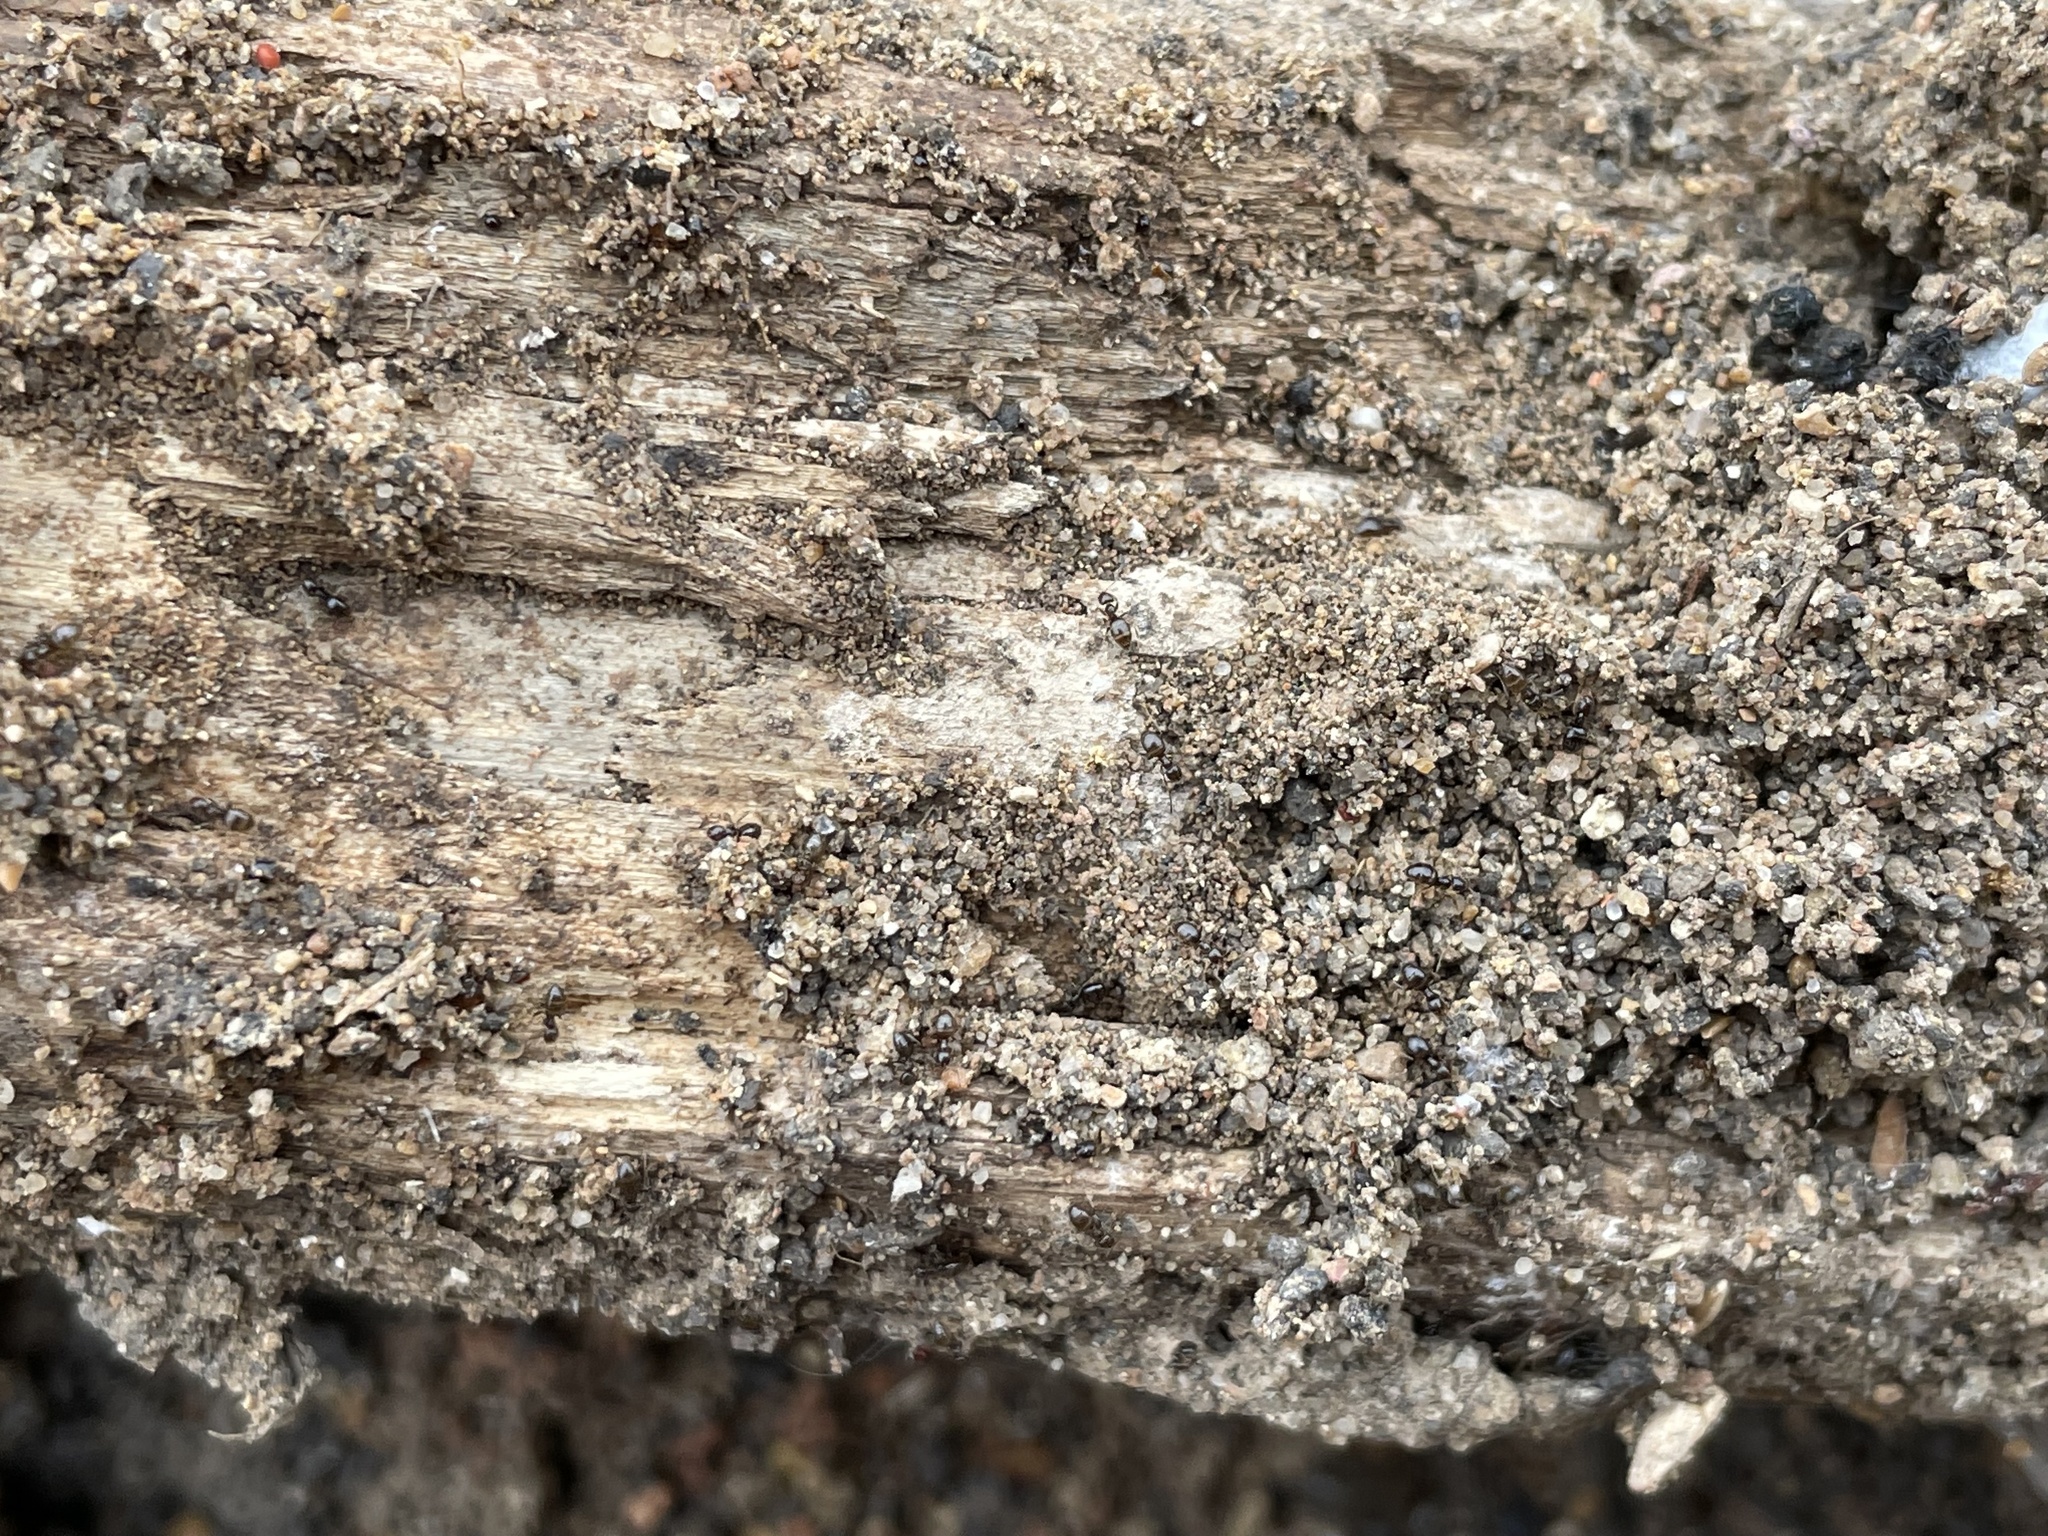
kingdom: Animalia
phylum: Arthropoda
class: Insecta
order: Hymenoptera
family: Formicidae
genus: Brachymyrmex
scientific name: Brachymyrmex patagonicus
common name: Dark rover ant
